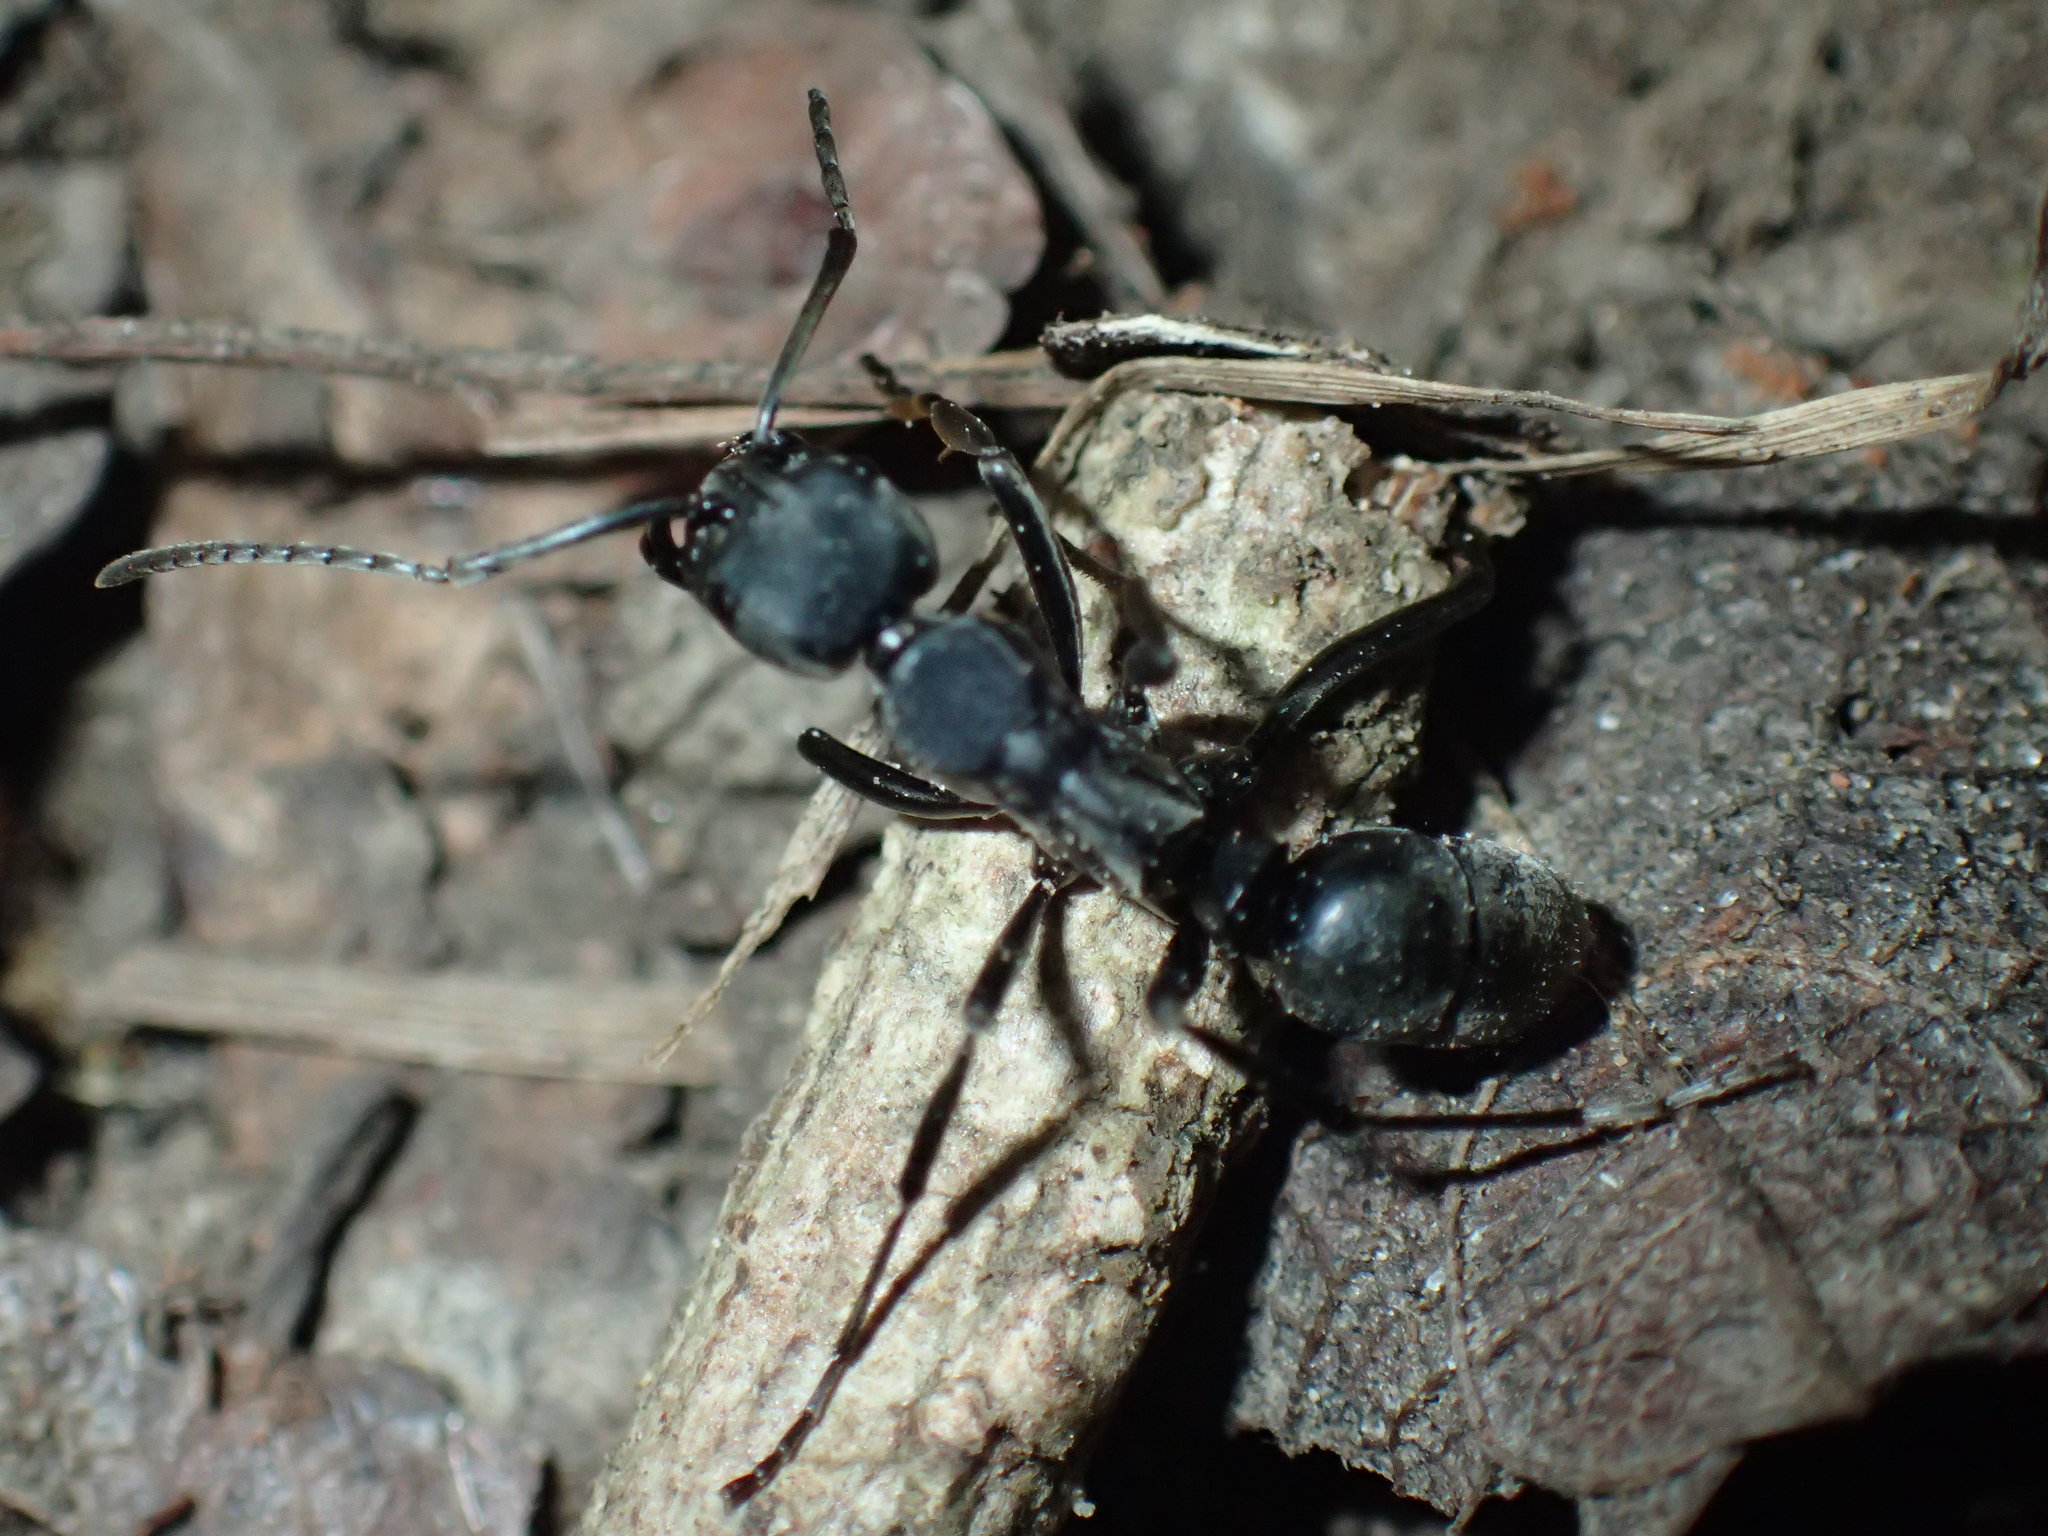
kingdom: Animalia
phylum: Arthropoda
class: Insecta
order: Hymenoptera
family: Formicidae
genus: Hagensia
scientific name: Hagensia
